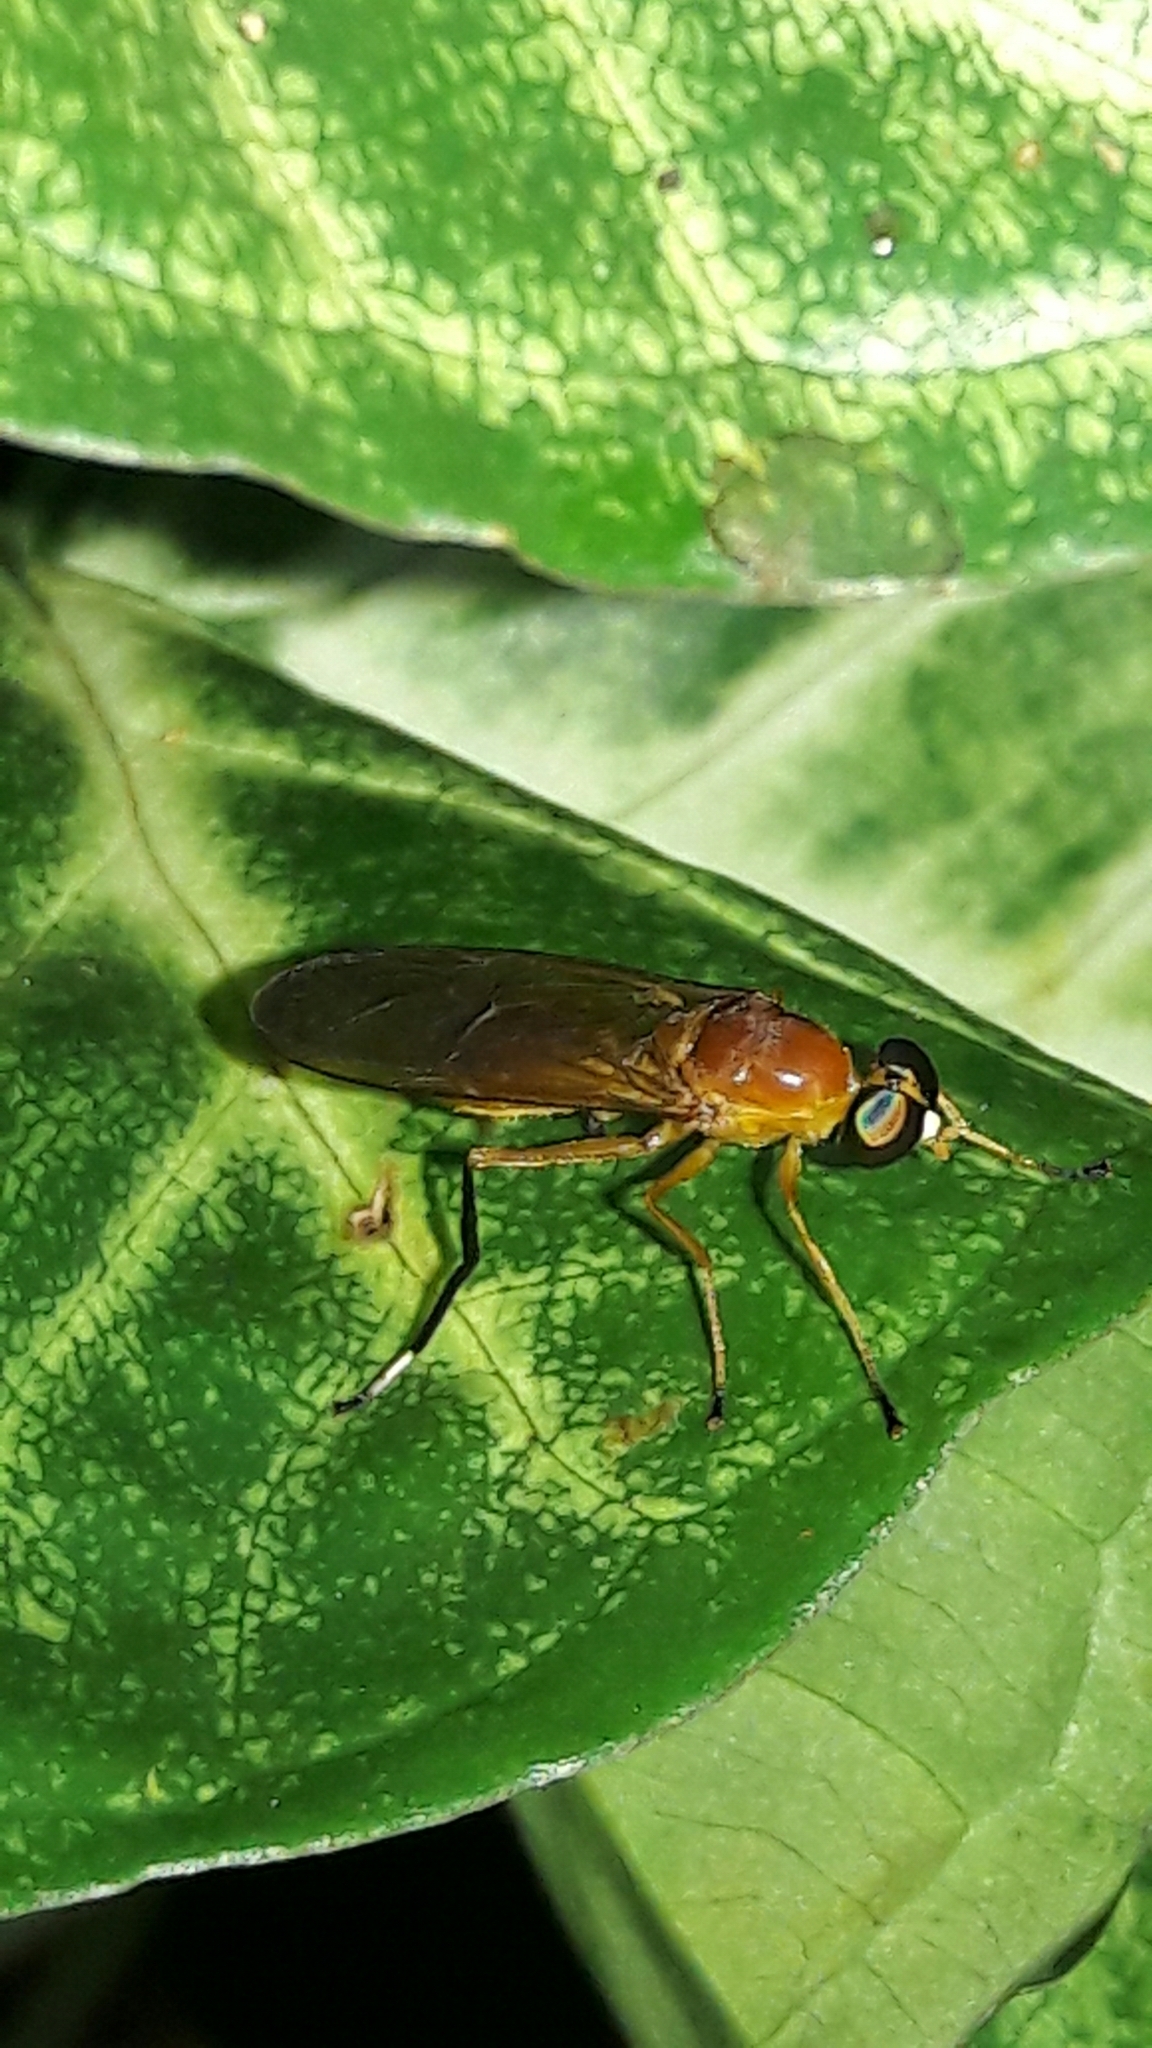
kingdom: Animalia
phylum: Arthropoda
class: Insecta
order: Diptera
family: Stratiomyidae
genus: Ptecticus
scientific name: Ptecticus testaceus
